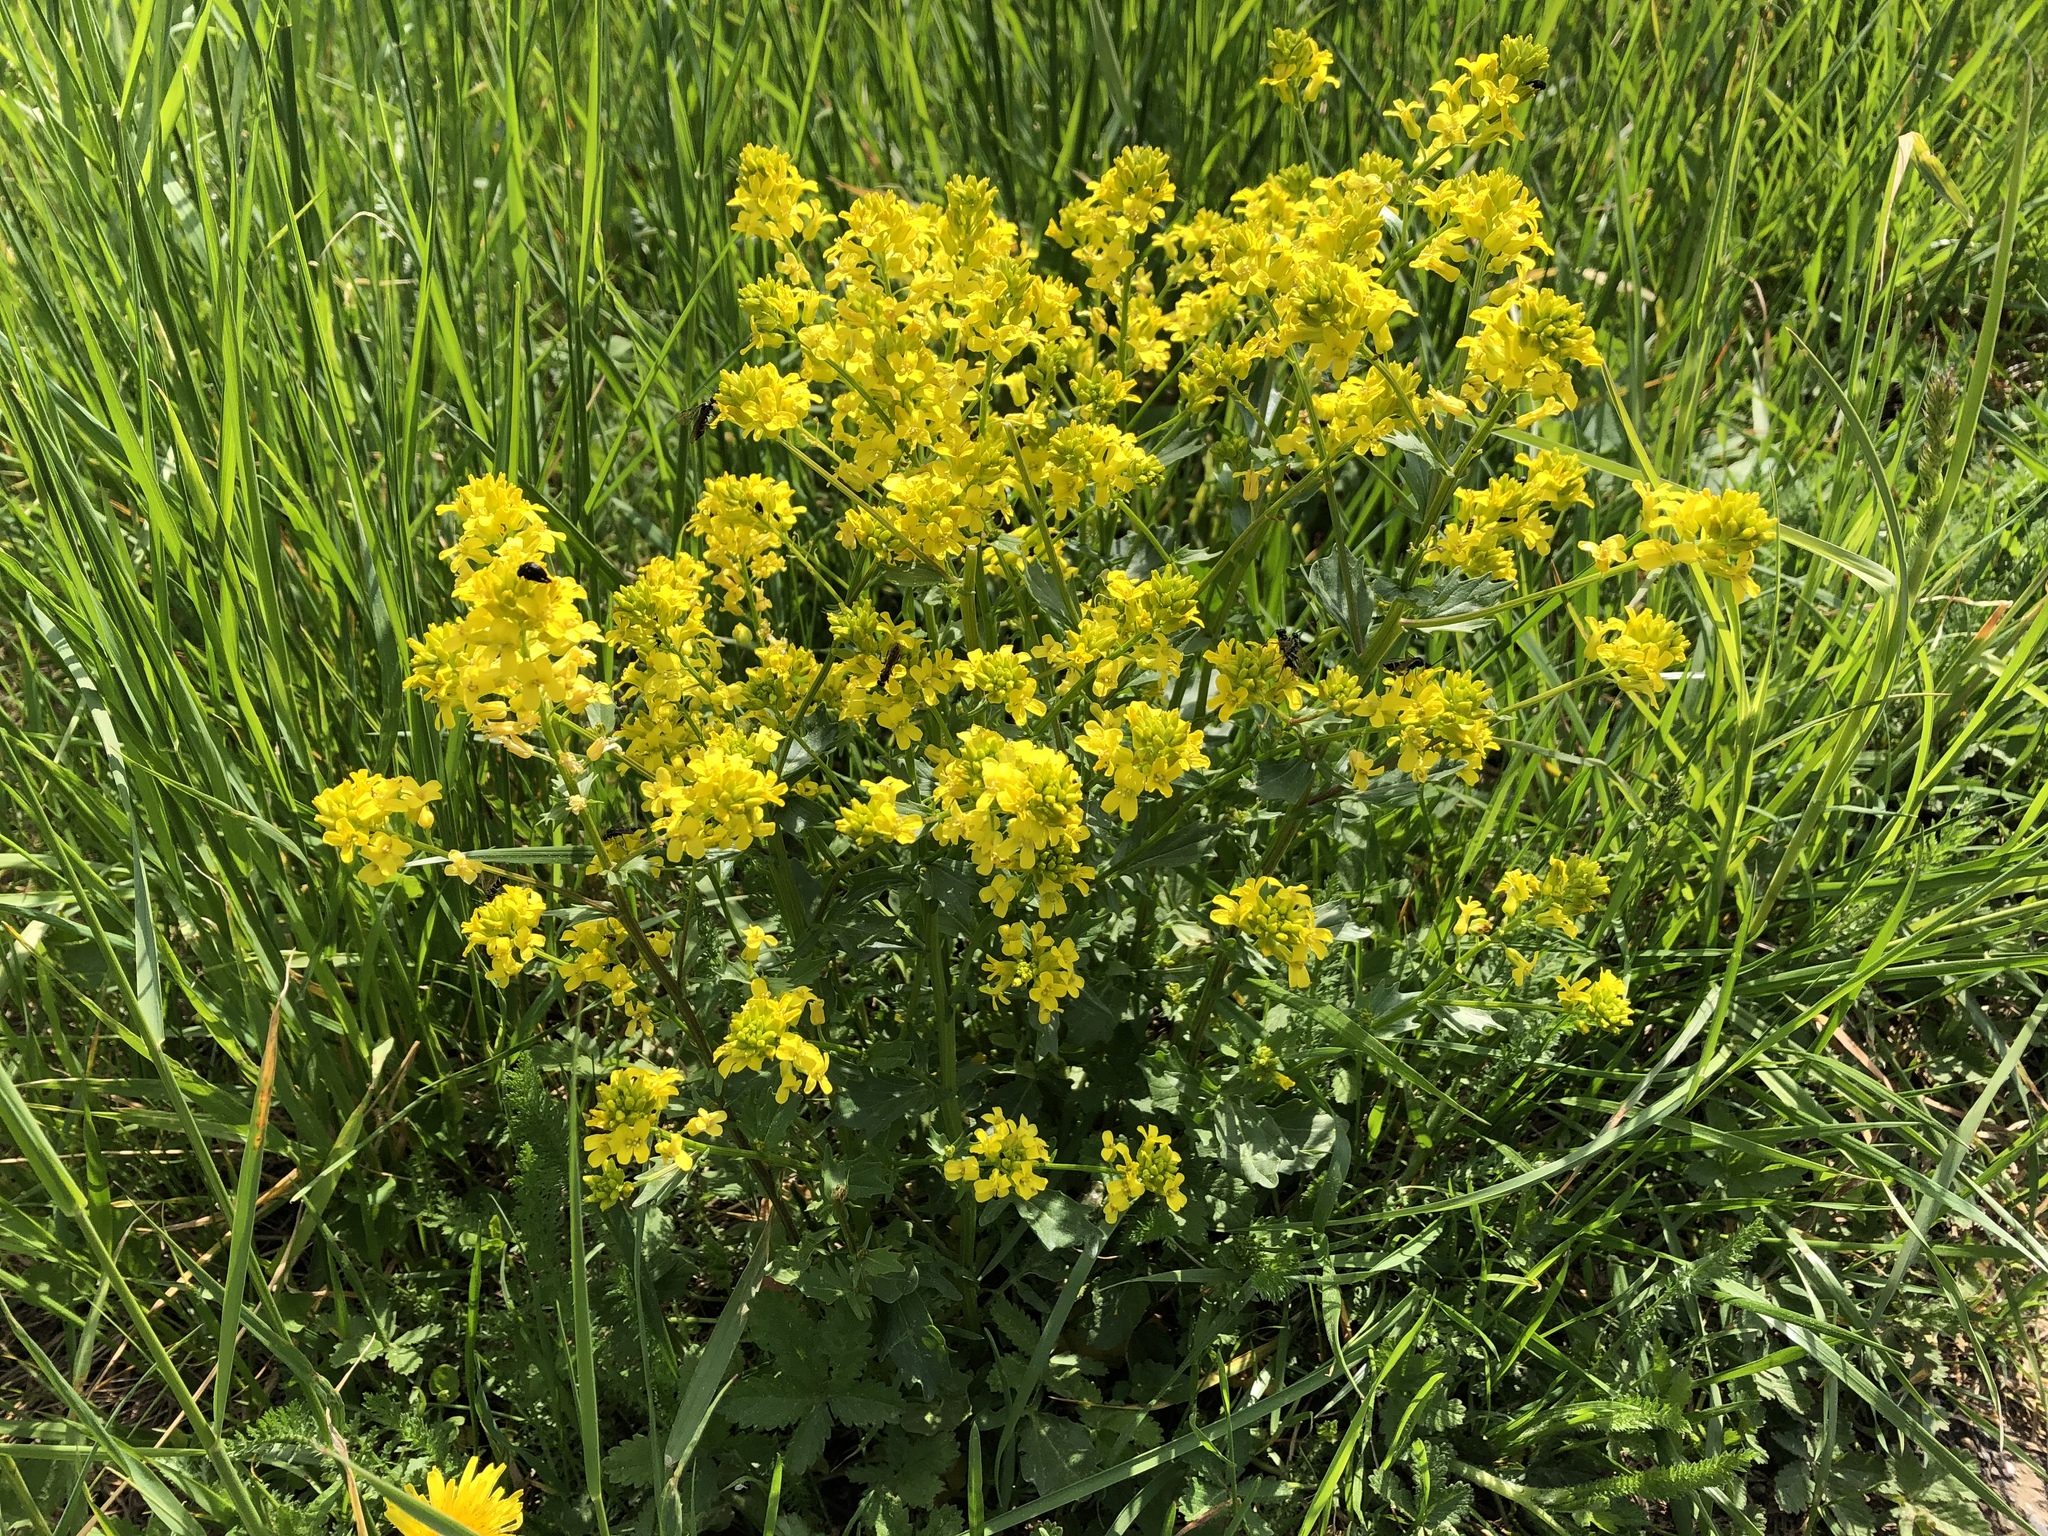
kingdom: Plantae
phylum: Tracheophyta
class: Magnoliopsida
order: Brassicales
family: Brassicaceae
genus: Barbarea
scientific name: Barbarea vulgaris
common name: Cressy-greens
